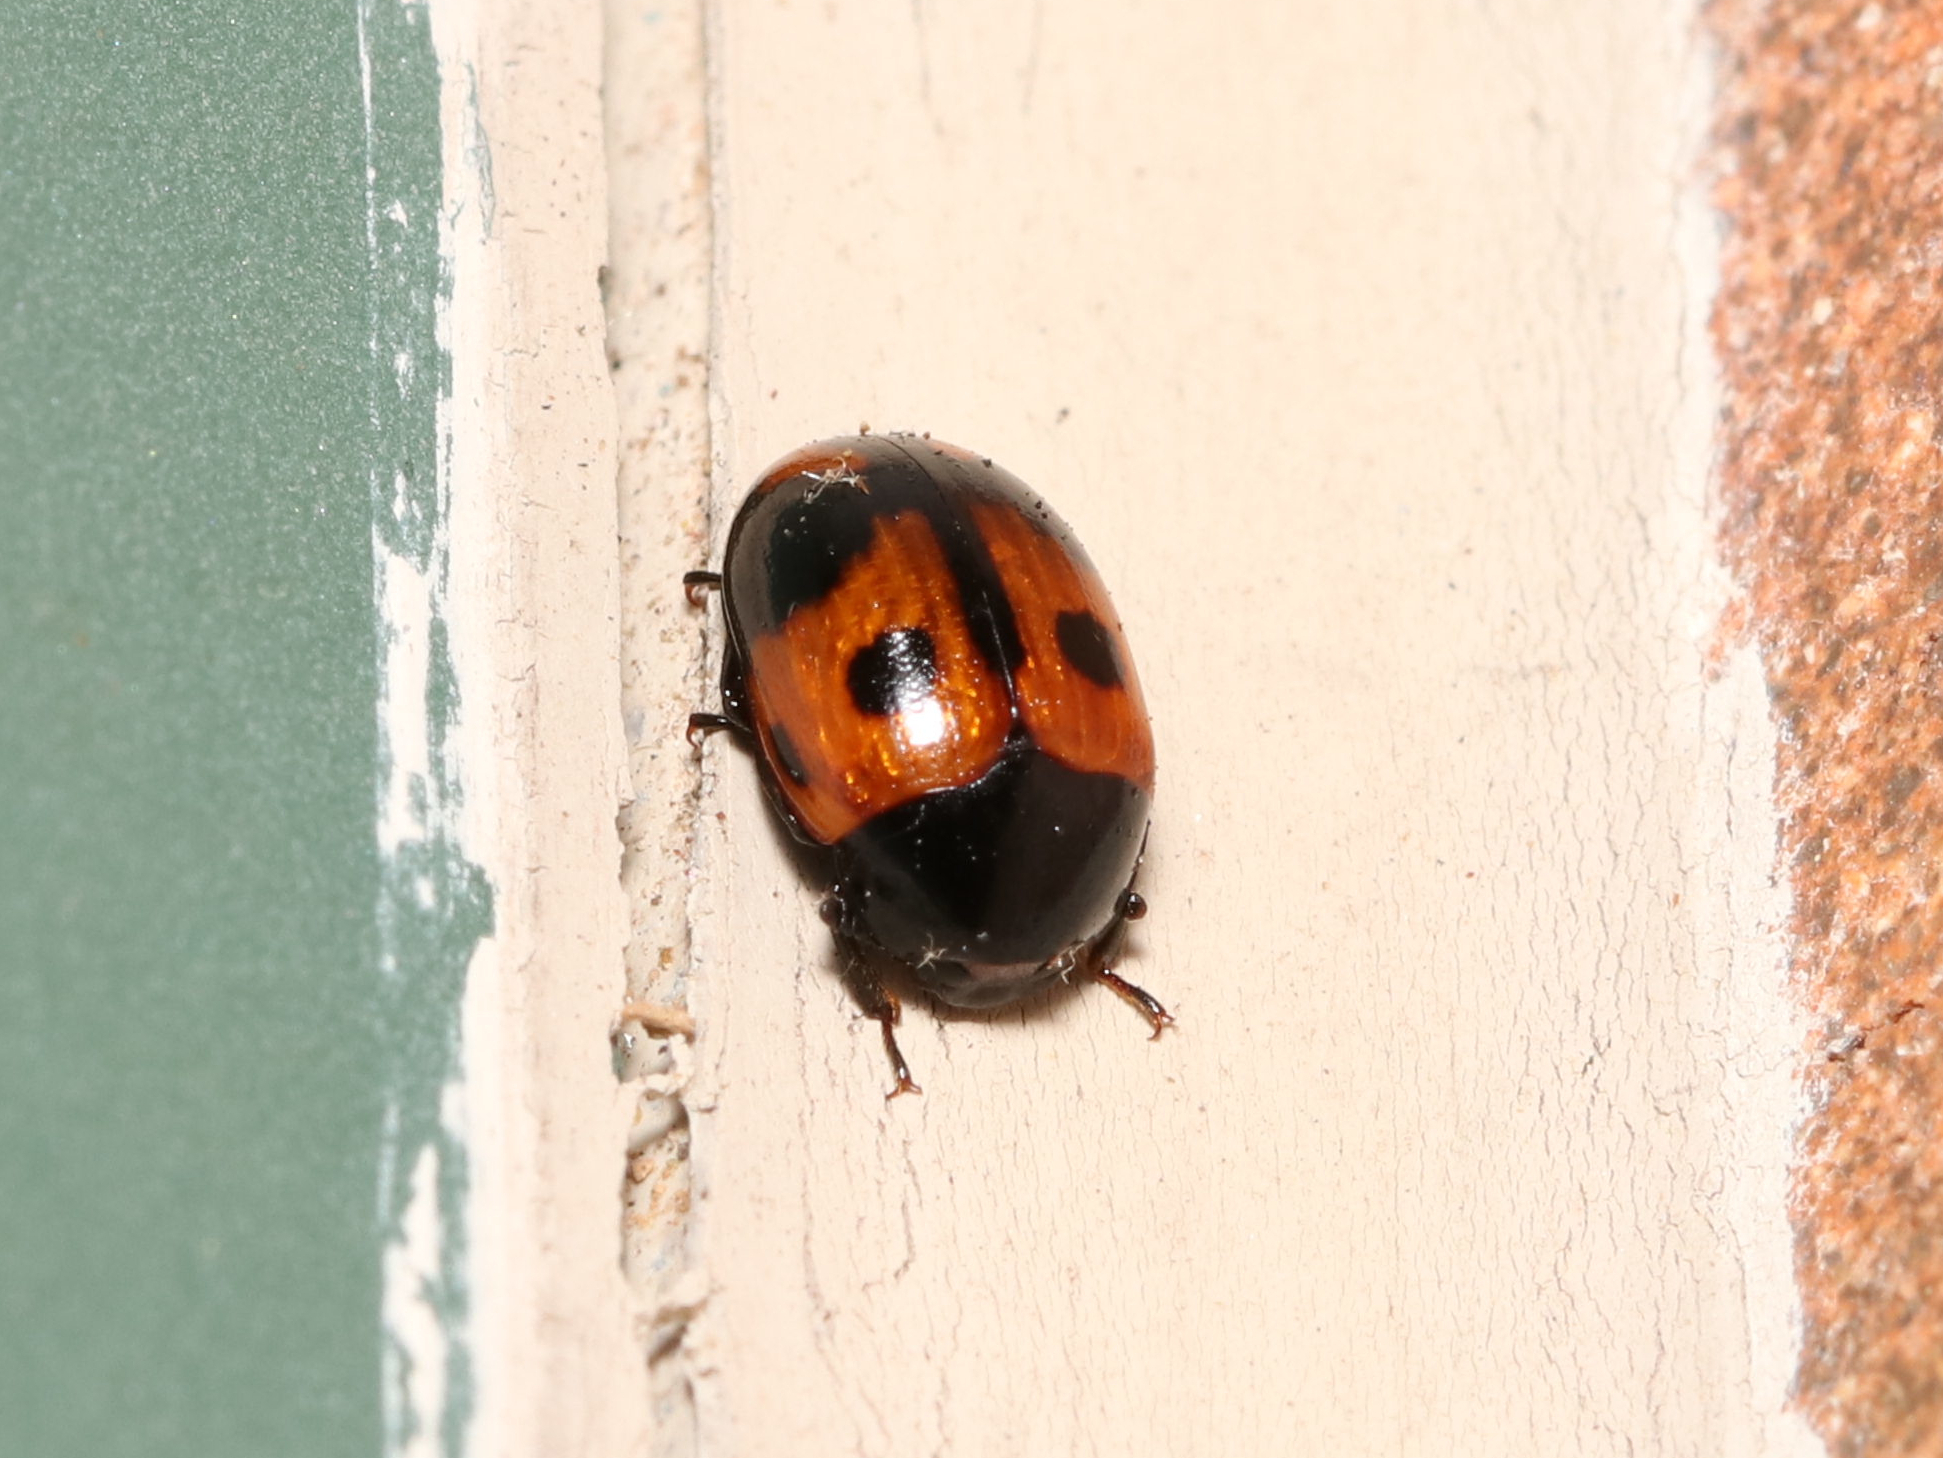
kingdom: Animalia
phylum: Arthropoda
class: Insecta
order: Coleoptera
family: Tenebrionidae
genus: Diaperis
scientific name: Diaperis maculata
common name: Darkling beetle
